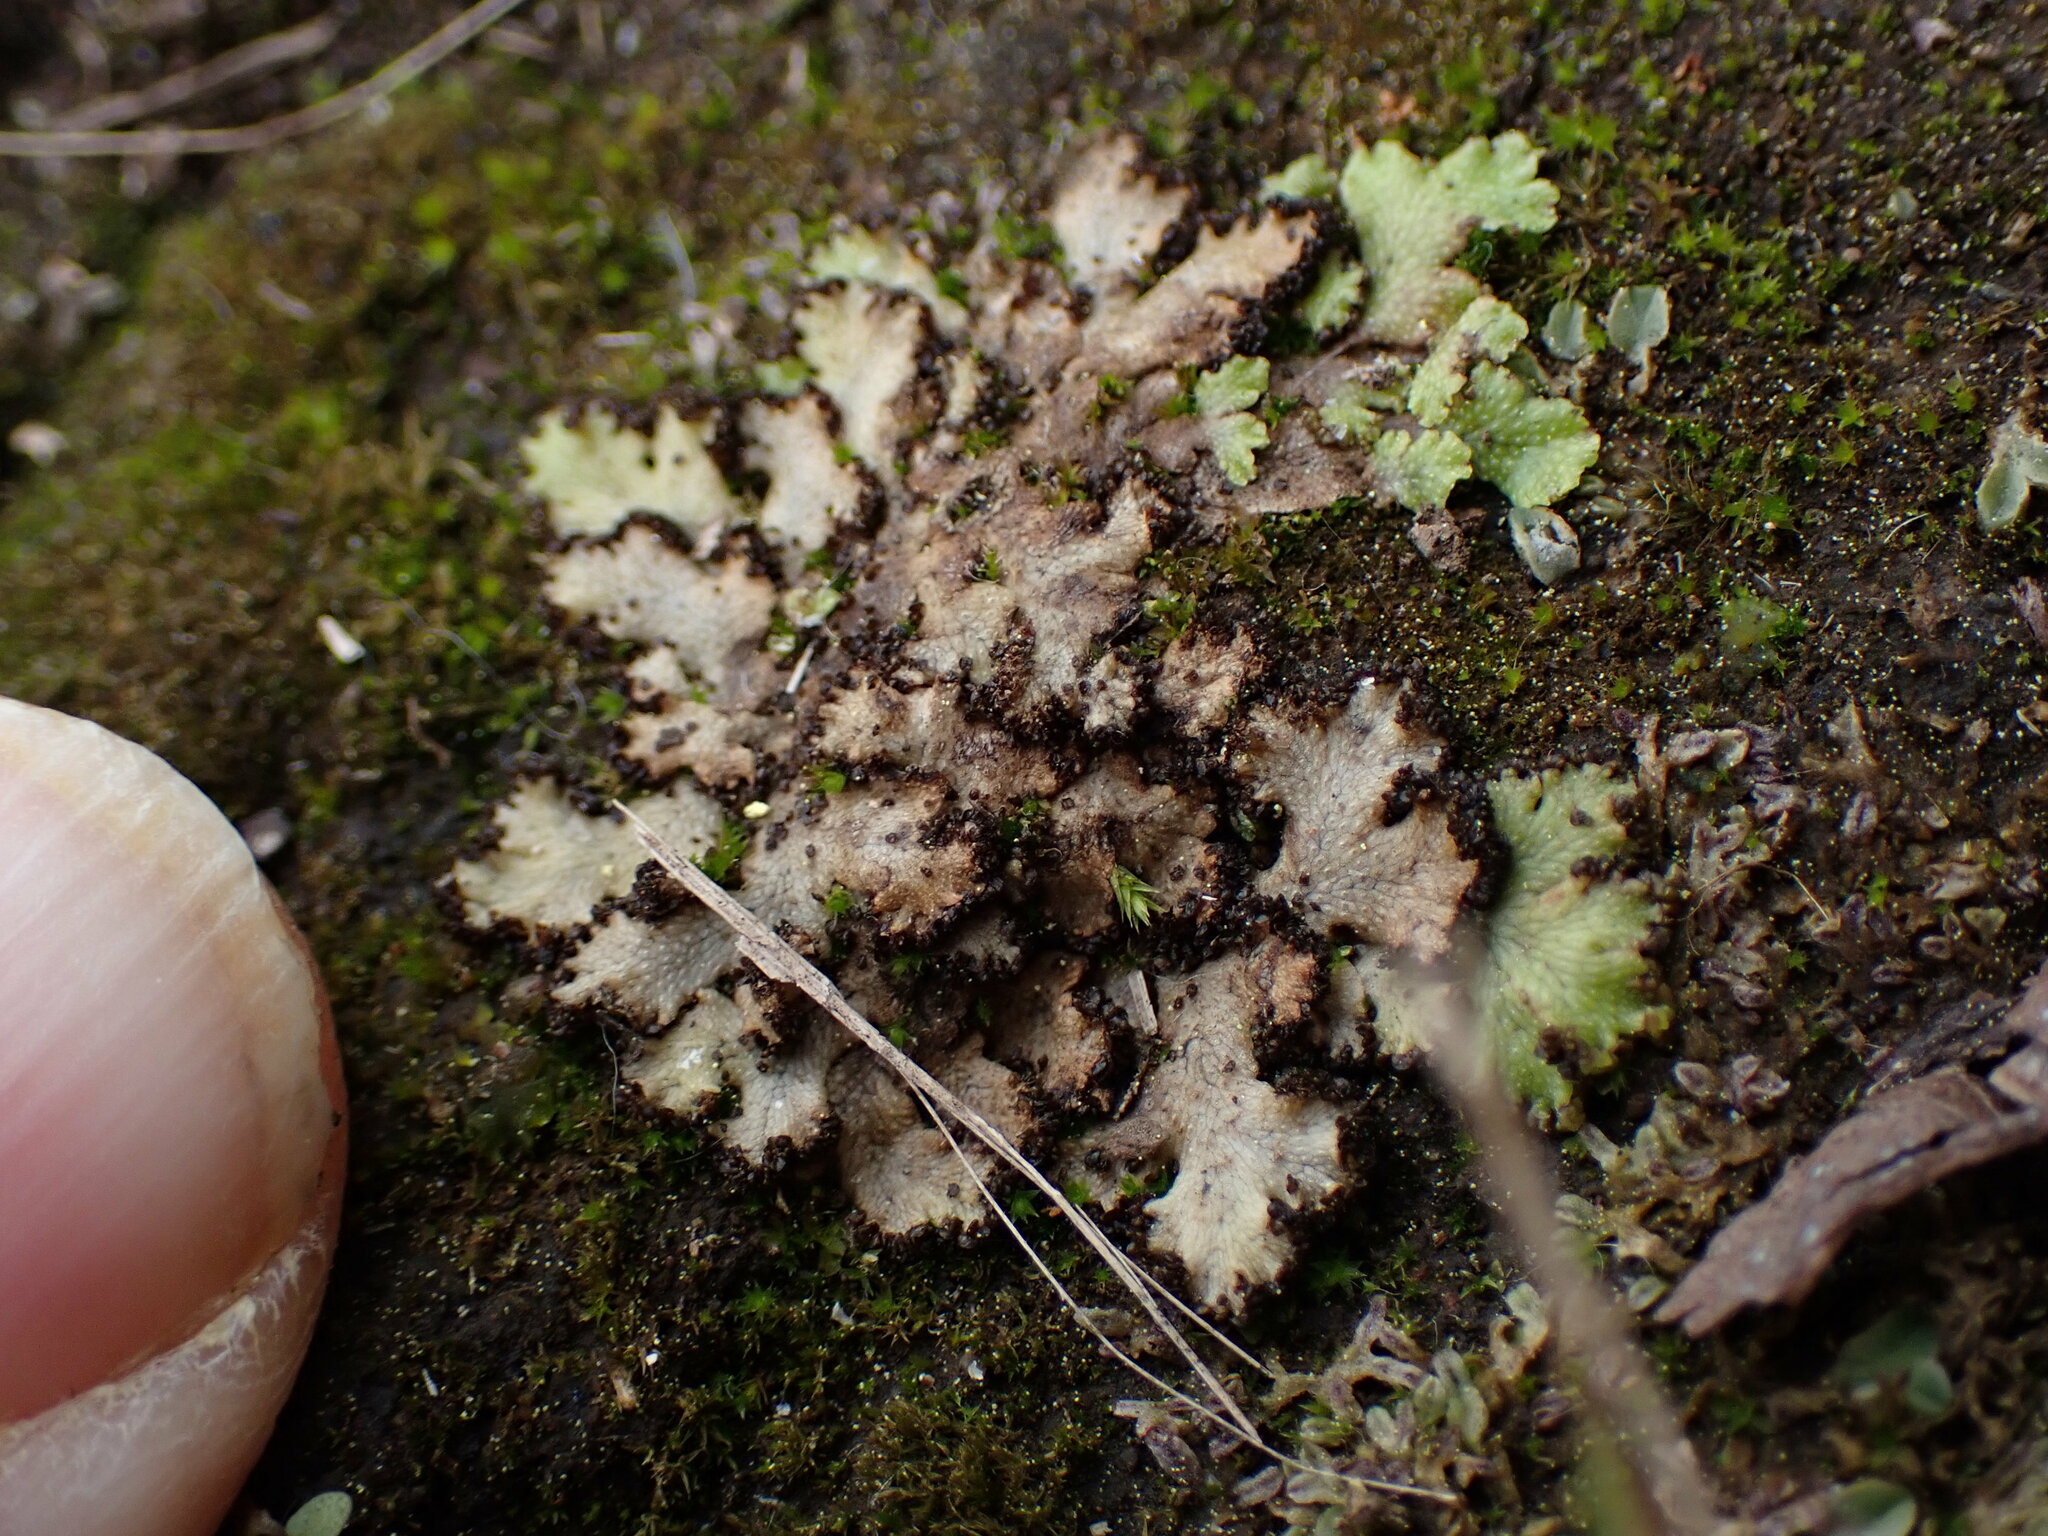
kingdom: Plantae
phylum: Marchantiophyta
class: Marchantiopsida
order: Marchantiales
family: Conocephalaceae
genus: Sandea
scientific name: Sandea japonica
